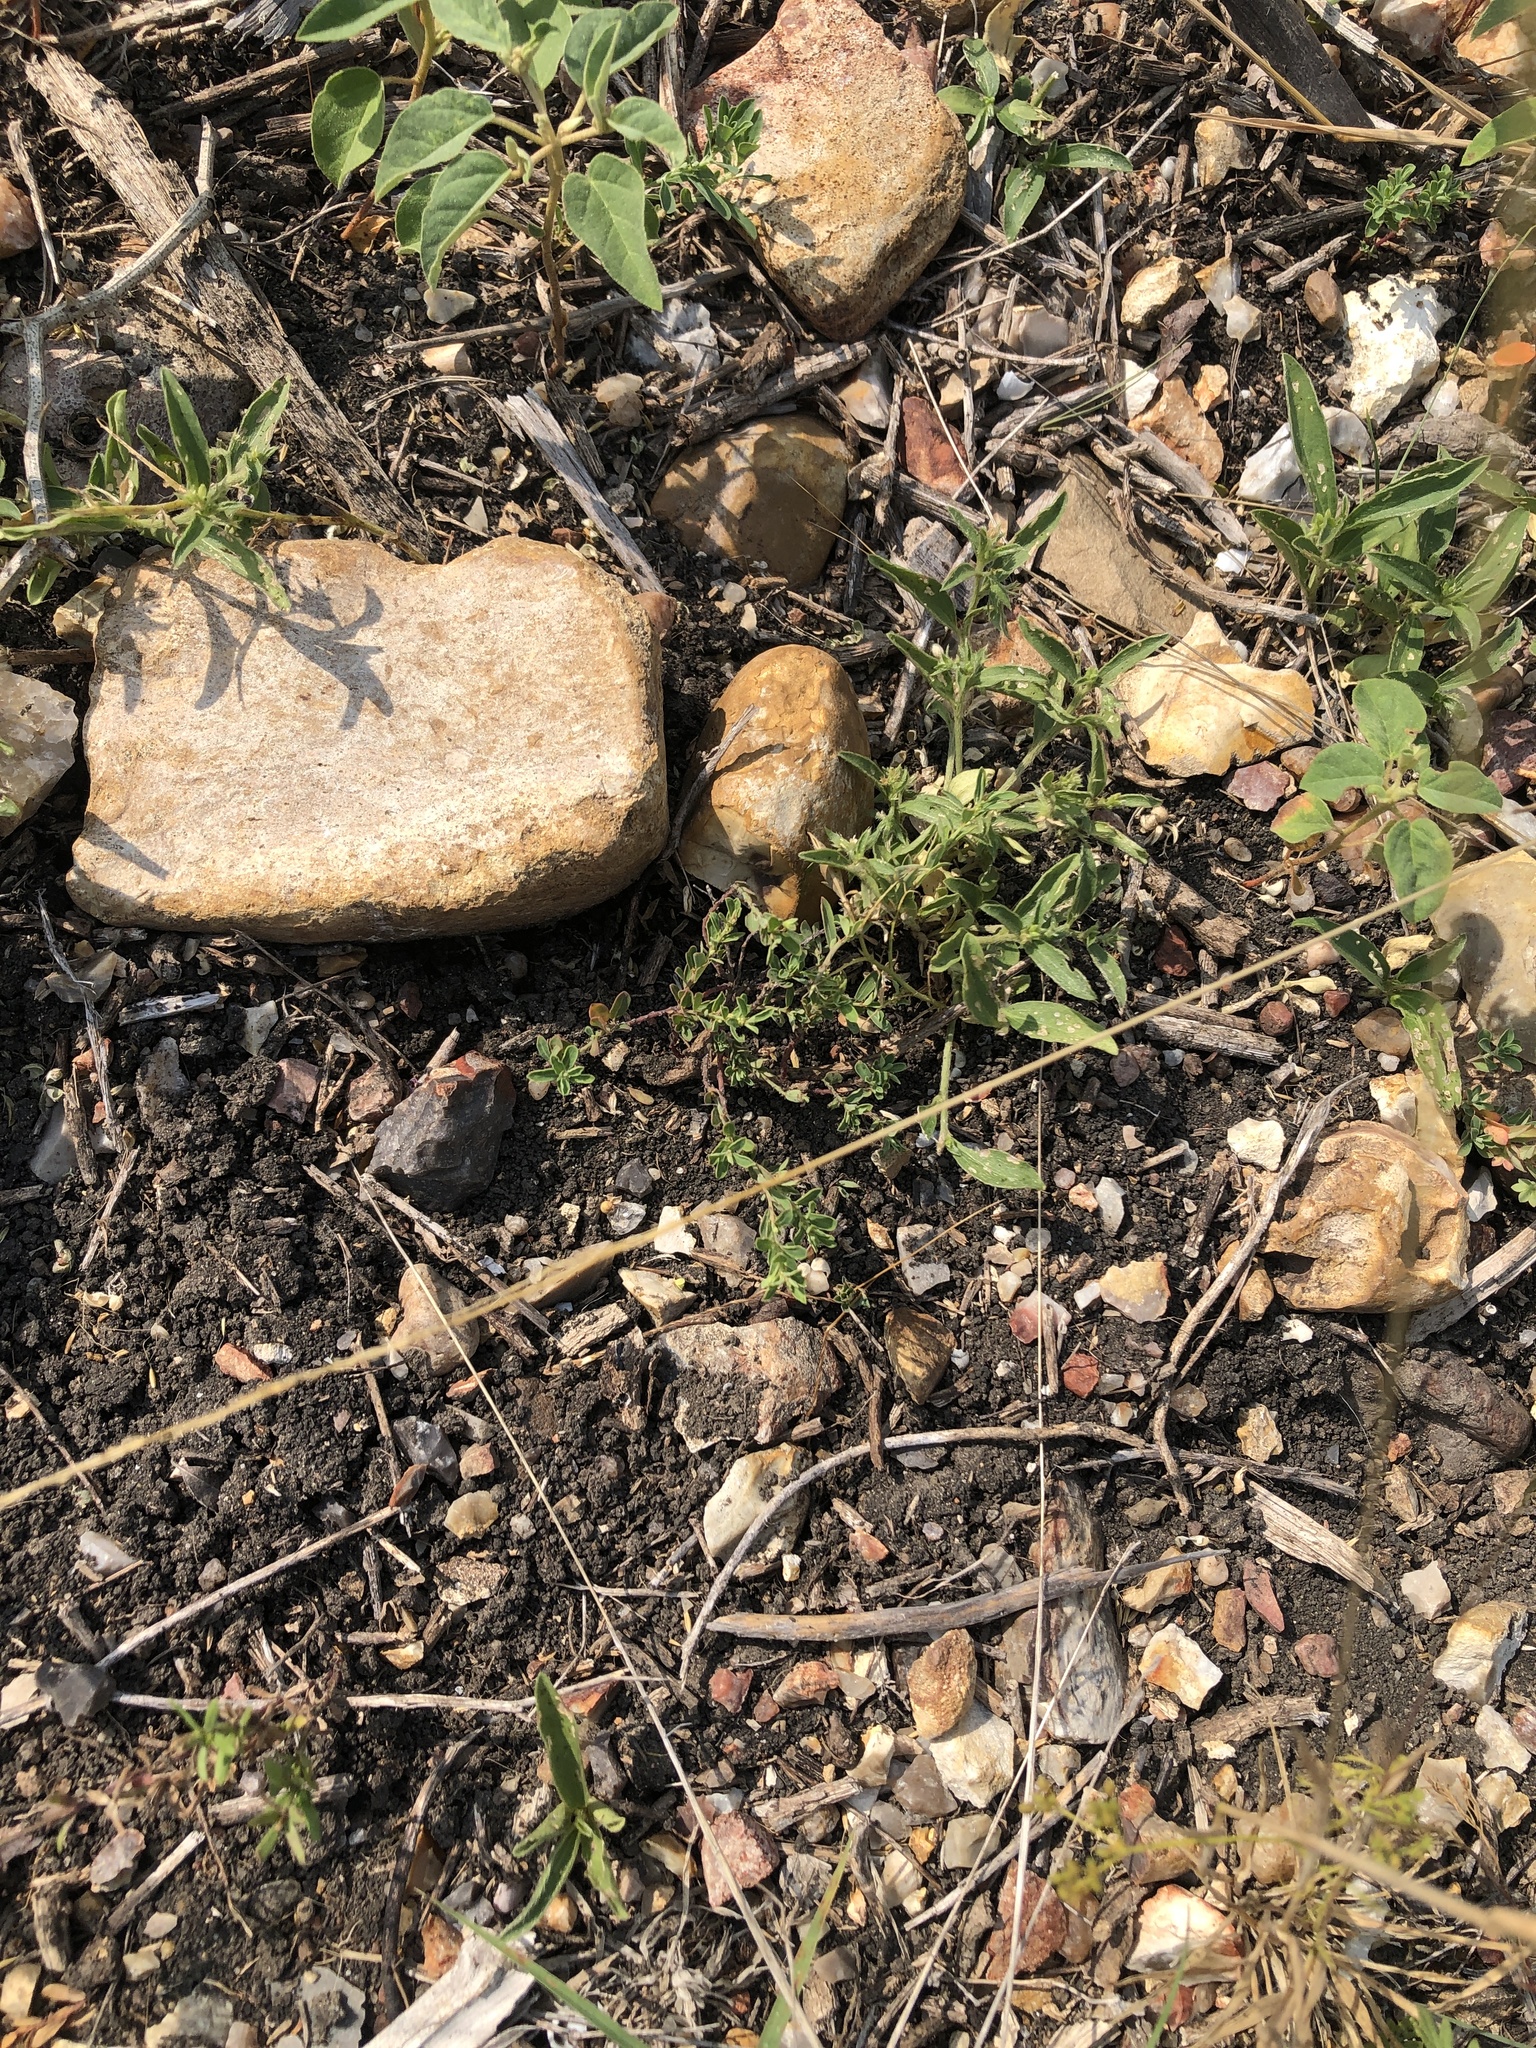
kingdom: Plantae
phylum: Tracheophyta
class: Magnoliopsida
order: Malpighiales
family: Phyllanthaceae
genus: Phyllanthus
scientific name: Phyllanthus polygonoides
